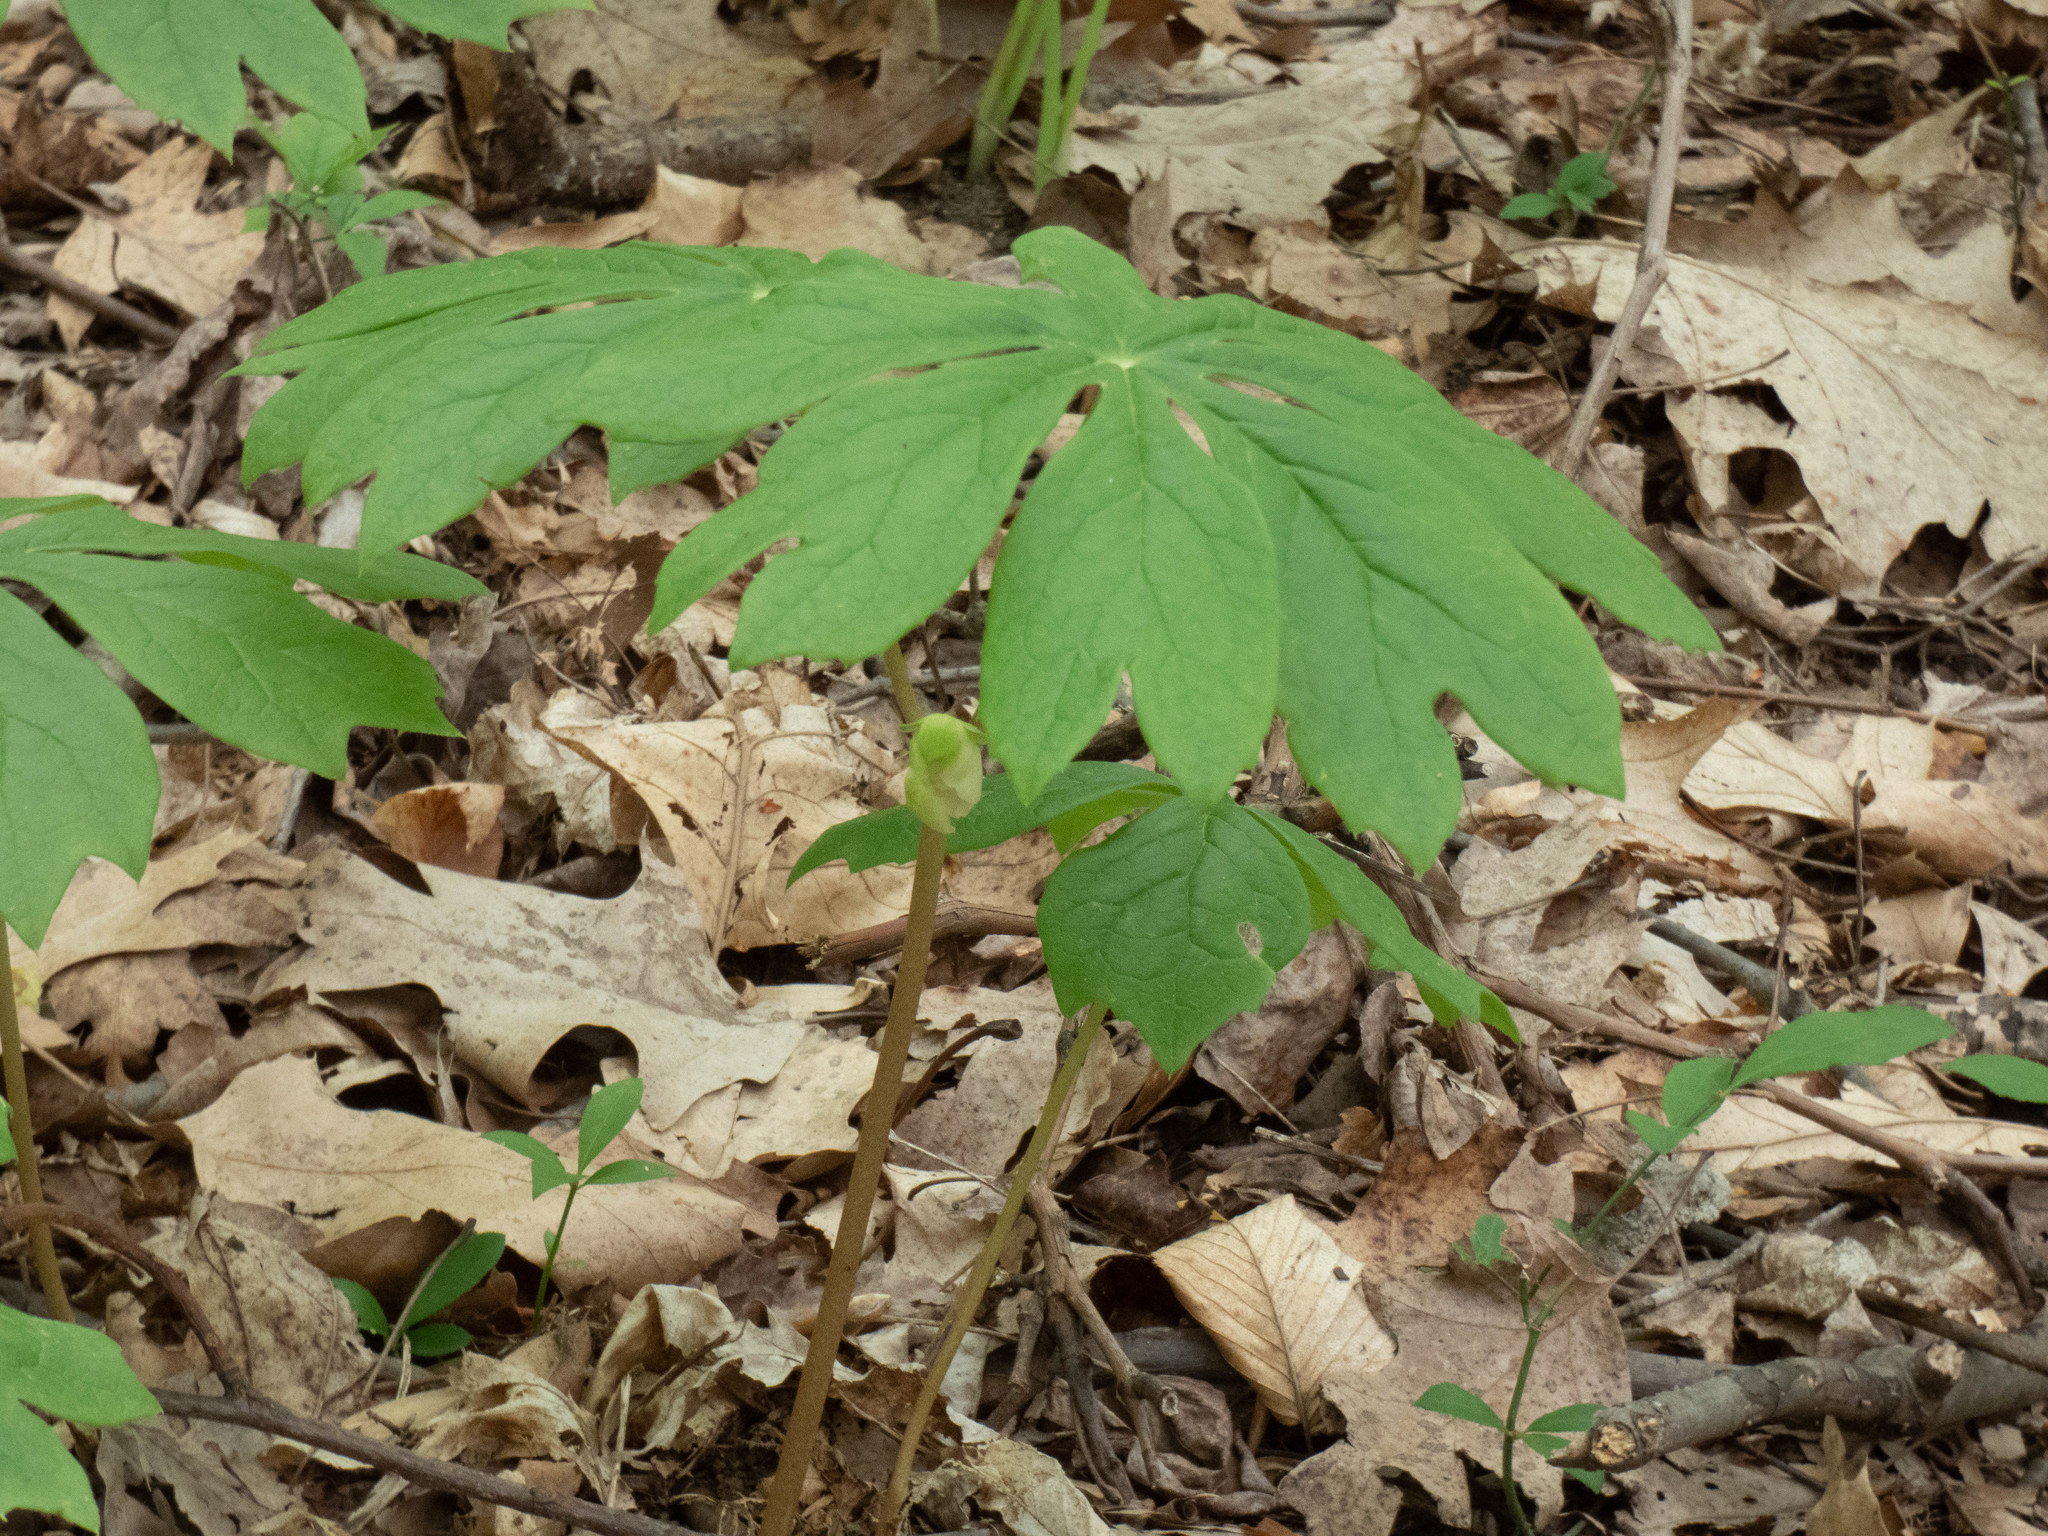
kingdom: Plantae
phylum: Tracheophyta
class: Magnoliopsida
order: Ranunculales
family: Berberidaceae
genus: Podophyllum
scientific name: Podophyllum peltatum
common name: Wild mandrake
